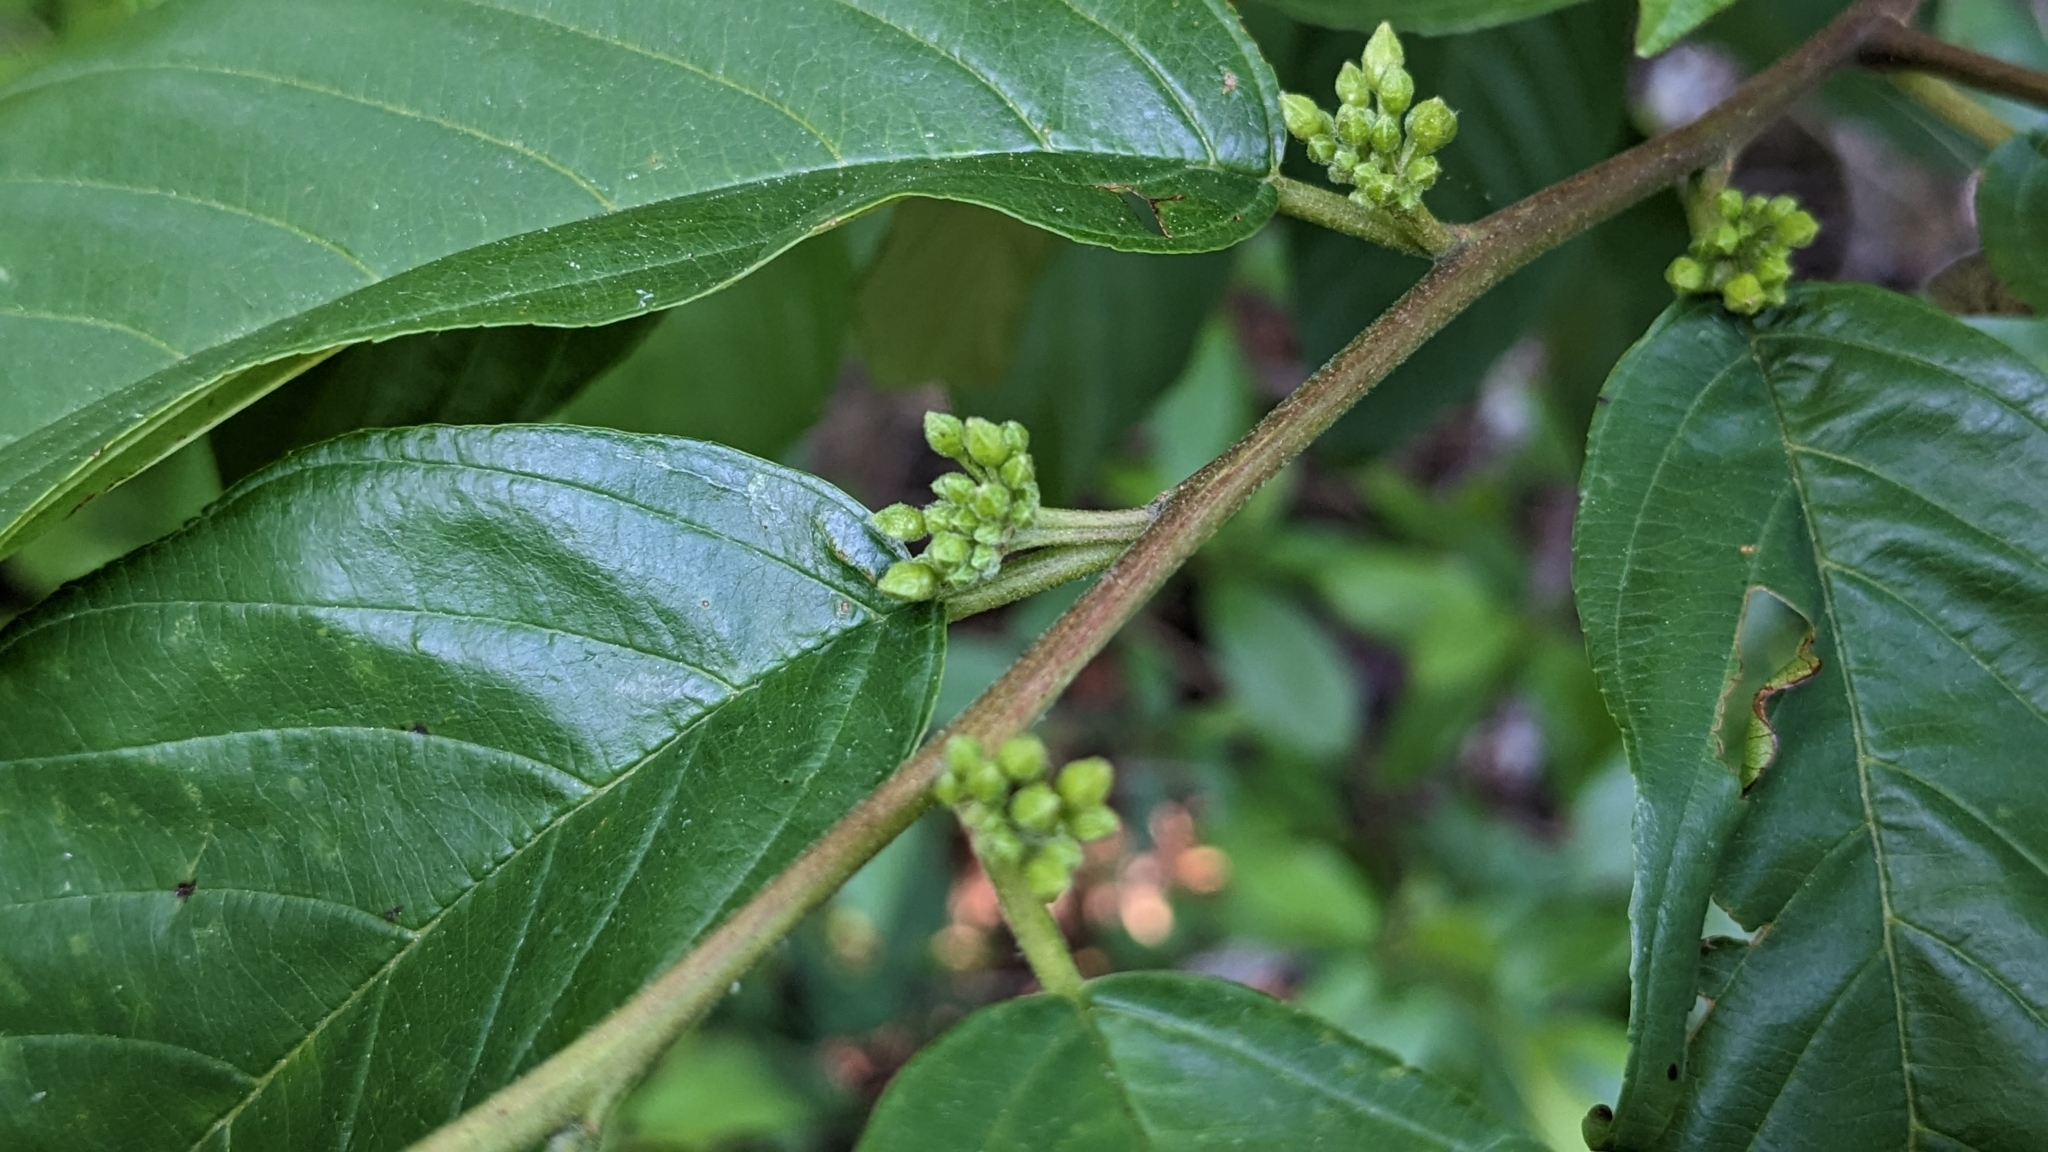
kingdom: Plantae
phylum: Tracheophyta
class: Magnoliopsida
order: Rosales
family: Rhamnaceae
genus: Frangula
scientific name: Frangula caroliniana
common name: Carolina buckthorn
